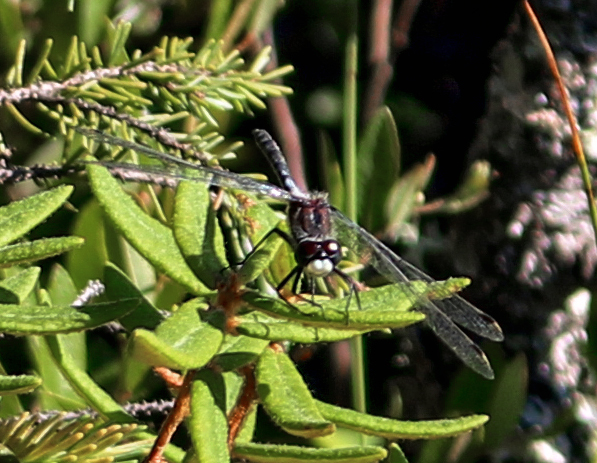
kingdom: Animalia
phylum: Arthropoda
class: Insecta
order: Odonata
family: Libellulidae
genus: Leucorrhinia
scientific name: Leucorrhinia
